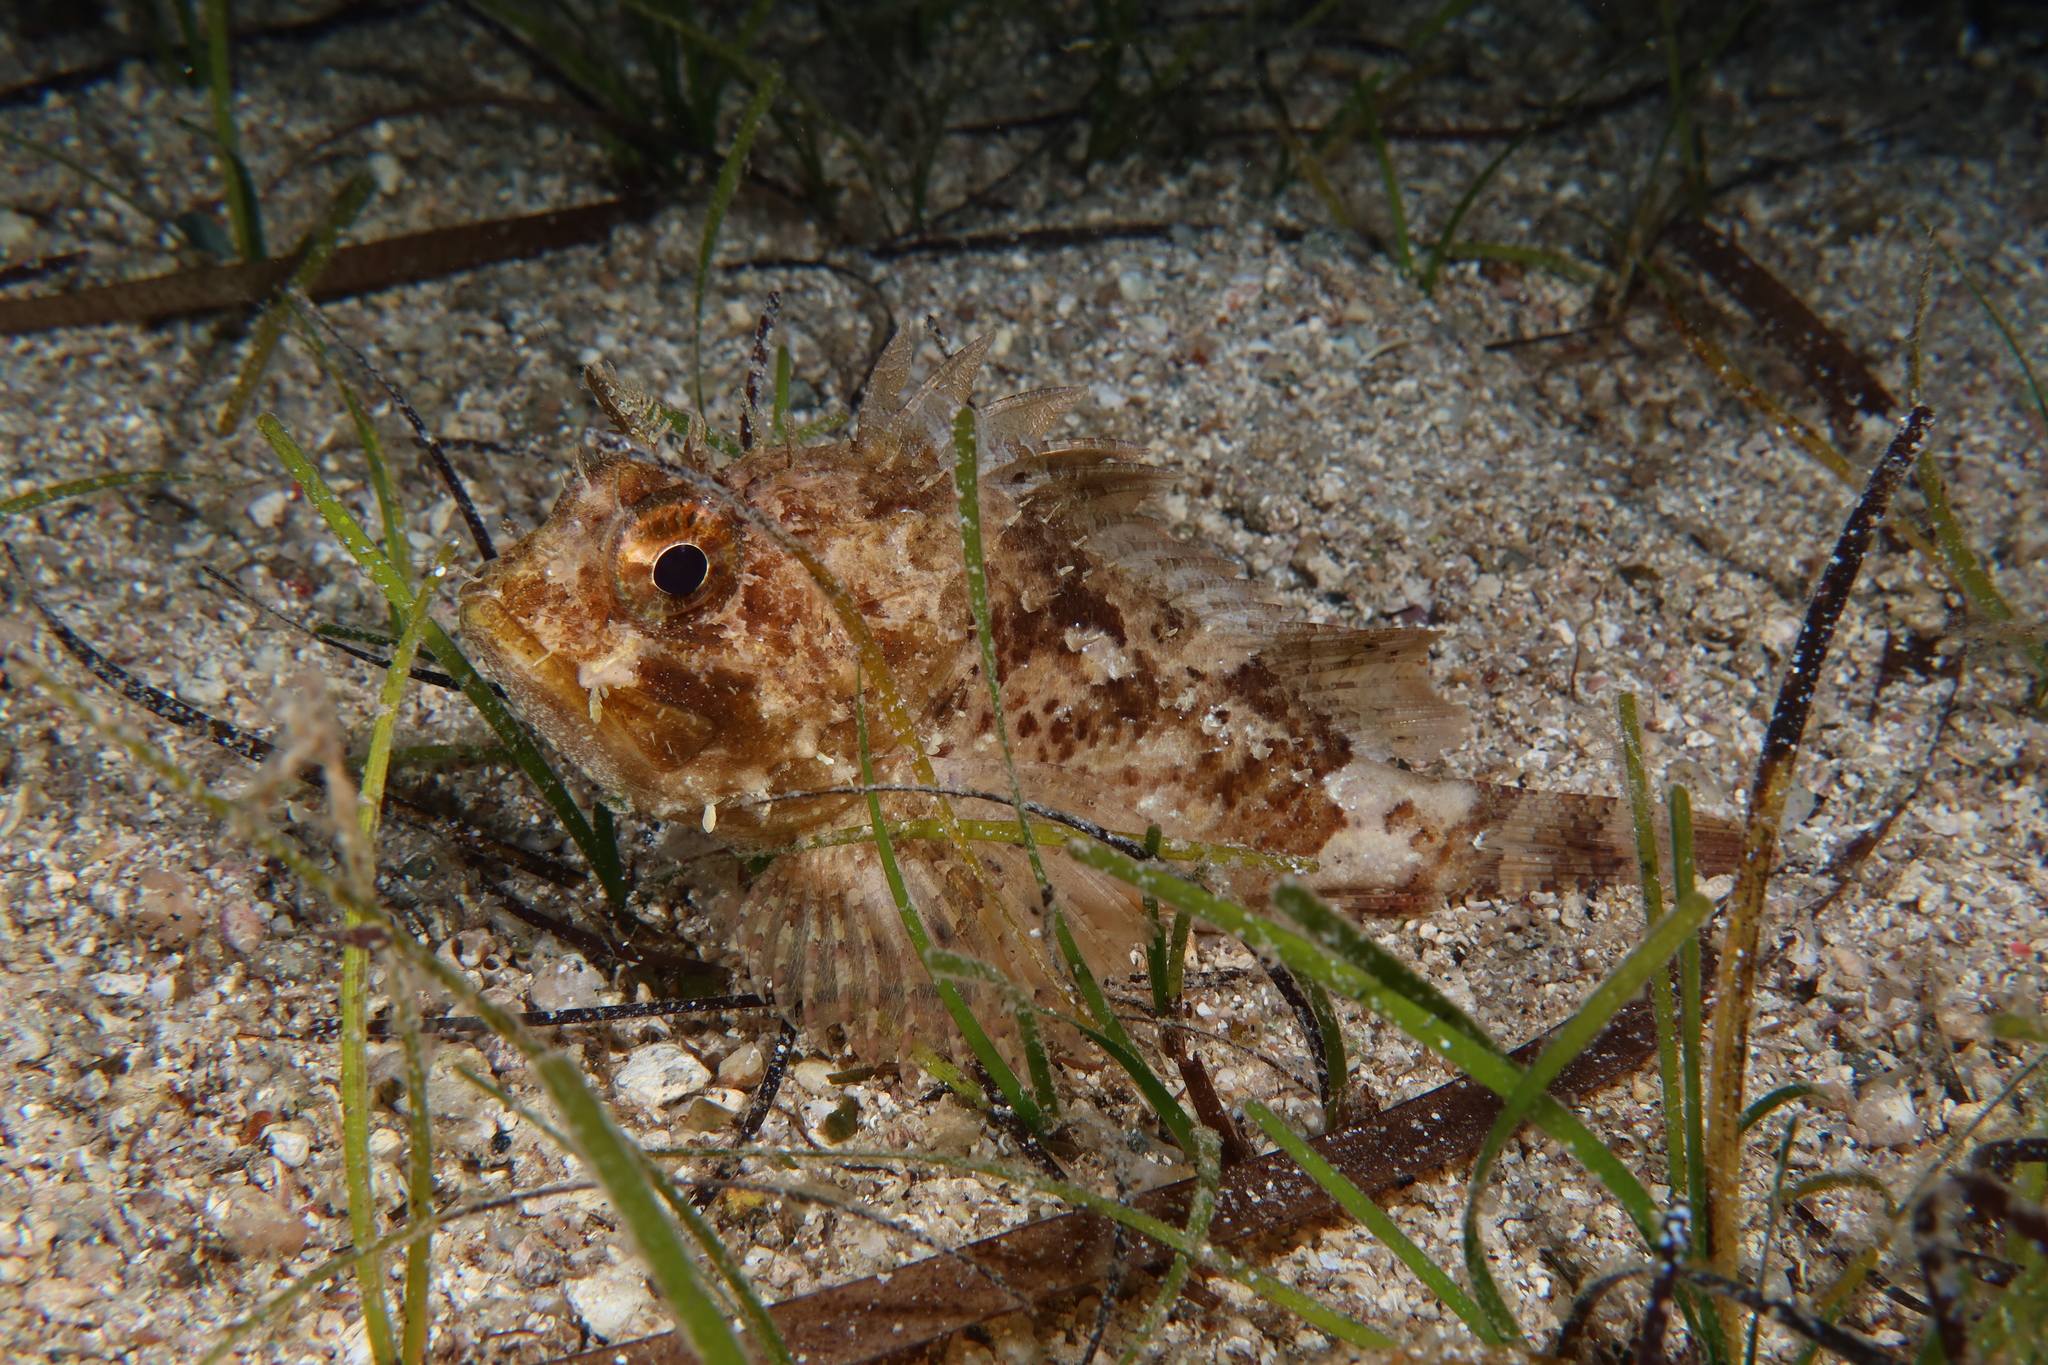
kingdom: Animalia
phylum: Chordata
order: Scorpaeniformes
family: Scorpaenidae
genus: Scorpaena
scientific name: Scorpaena porcus
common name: Black scorpionfish
